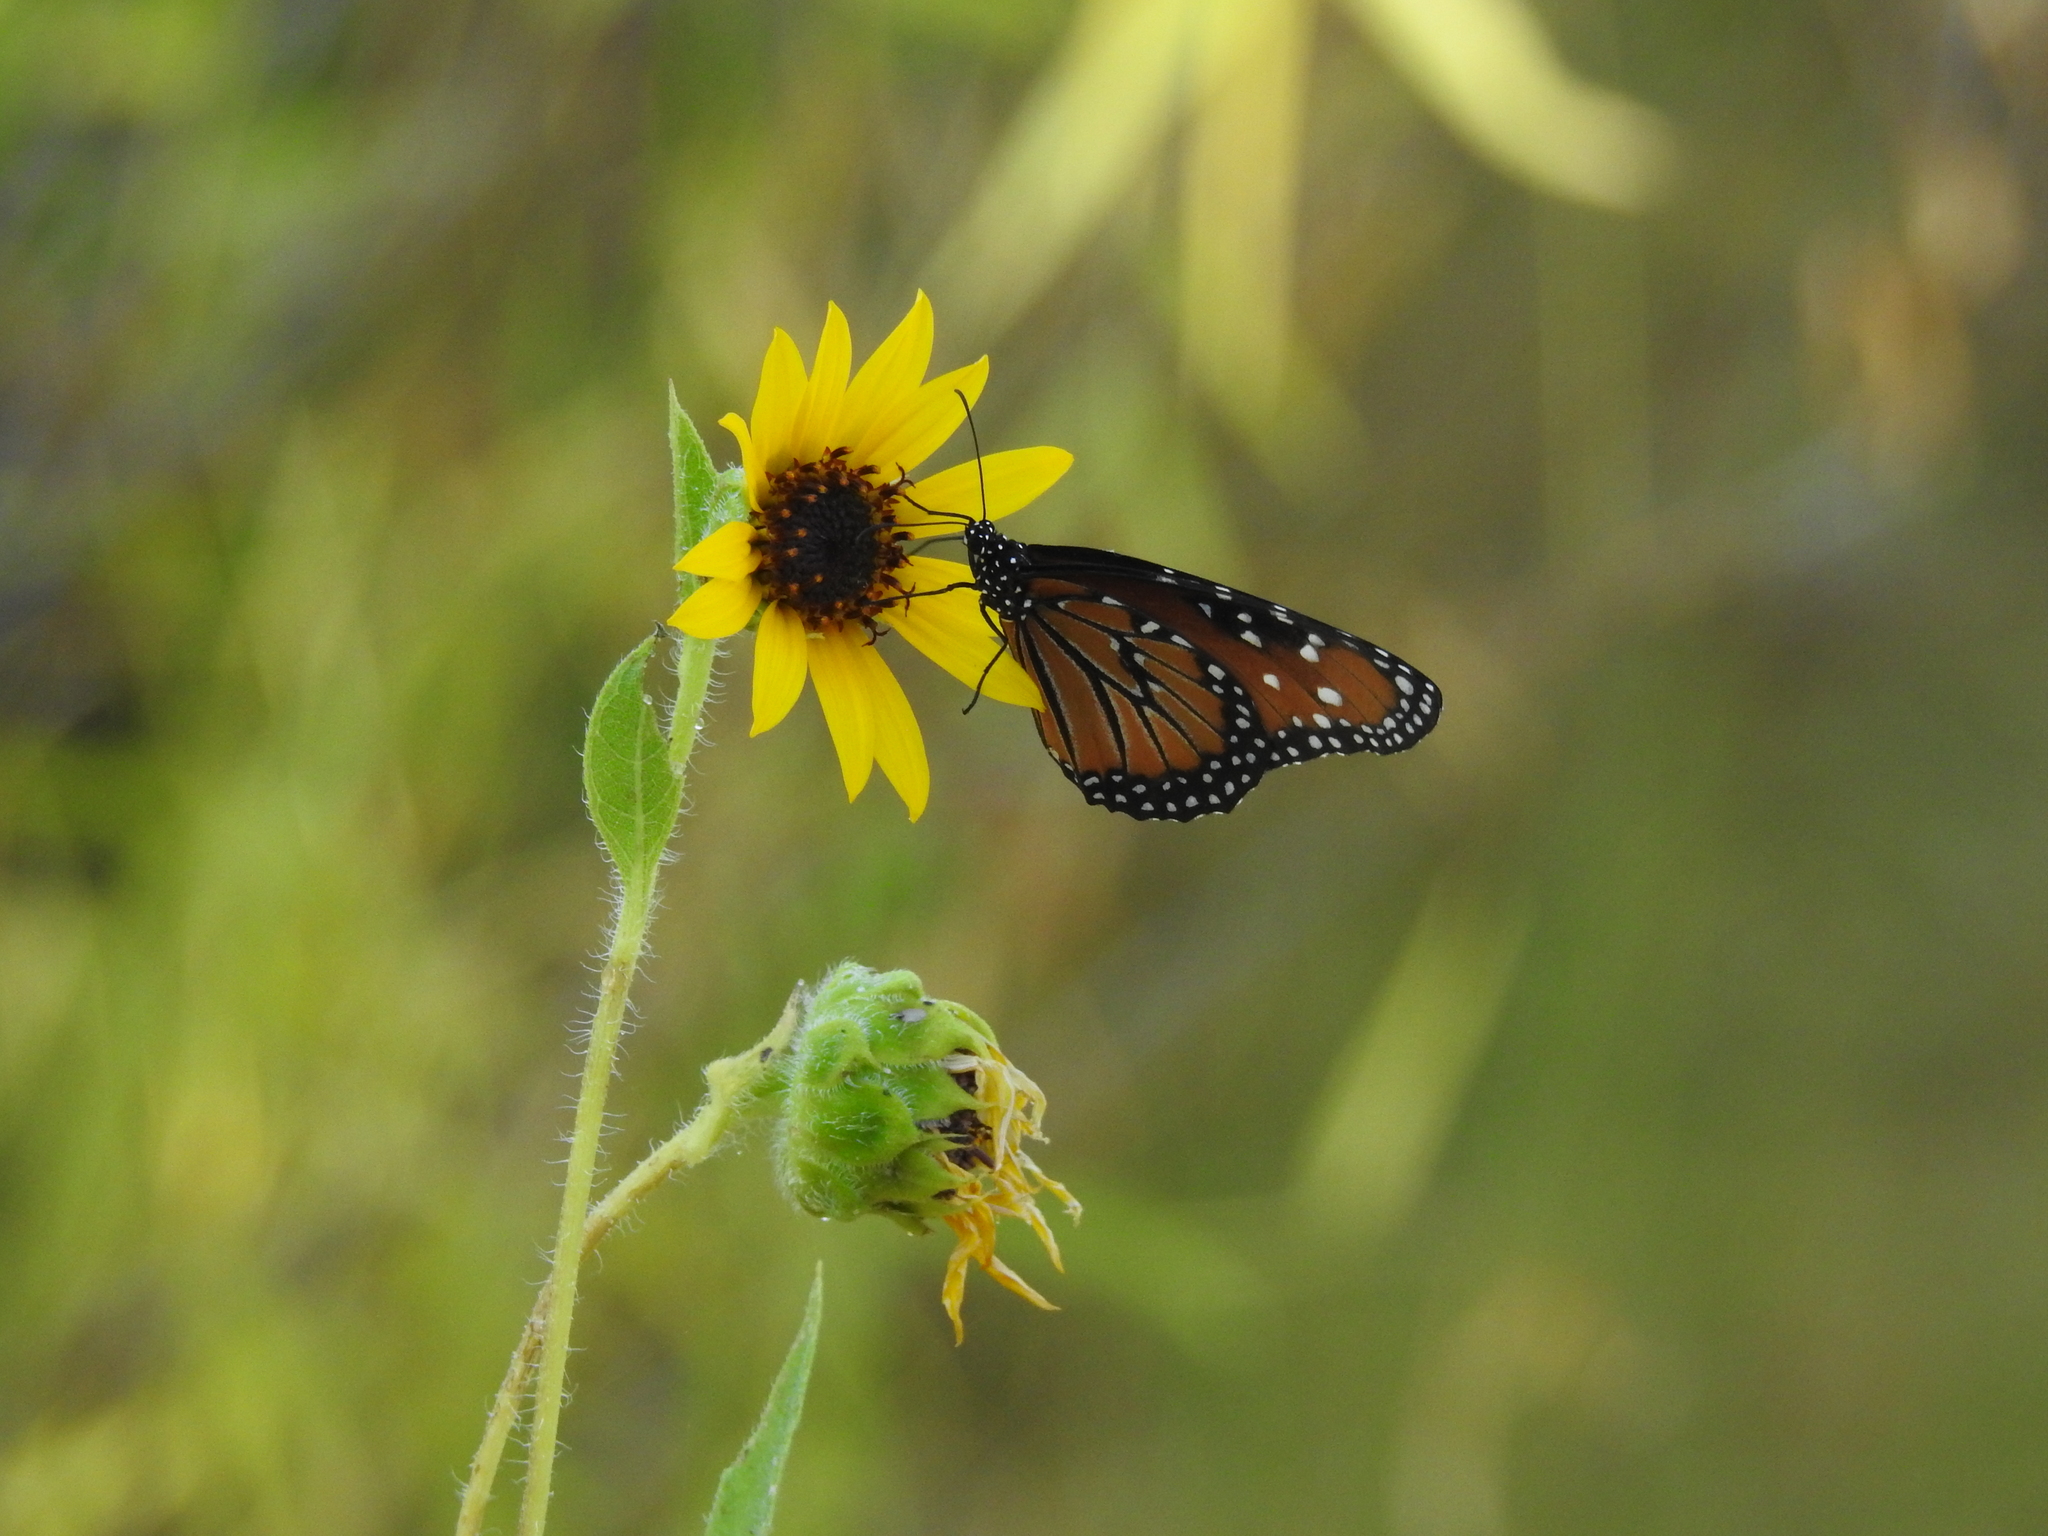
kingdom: Animalia
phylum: Arthropoda
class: Insecta
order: Lepidoptera
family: Nymphalidae
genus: Danaus
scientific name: Danaus gilippus
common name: Queen
